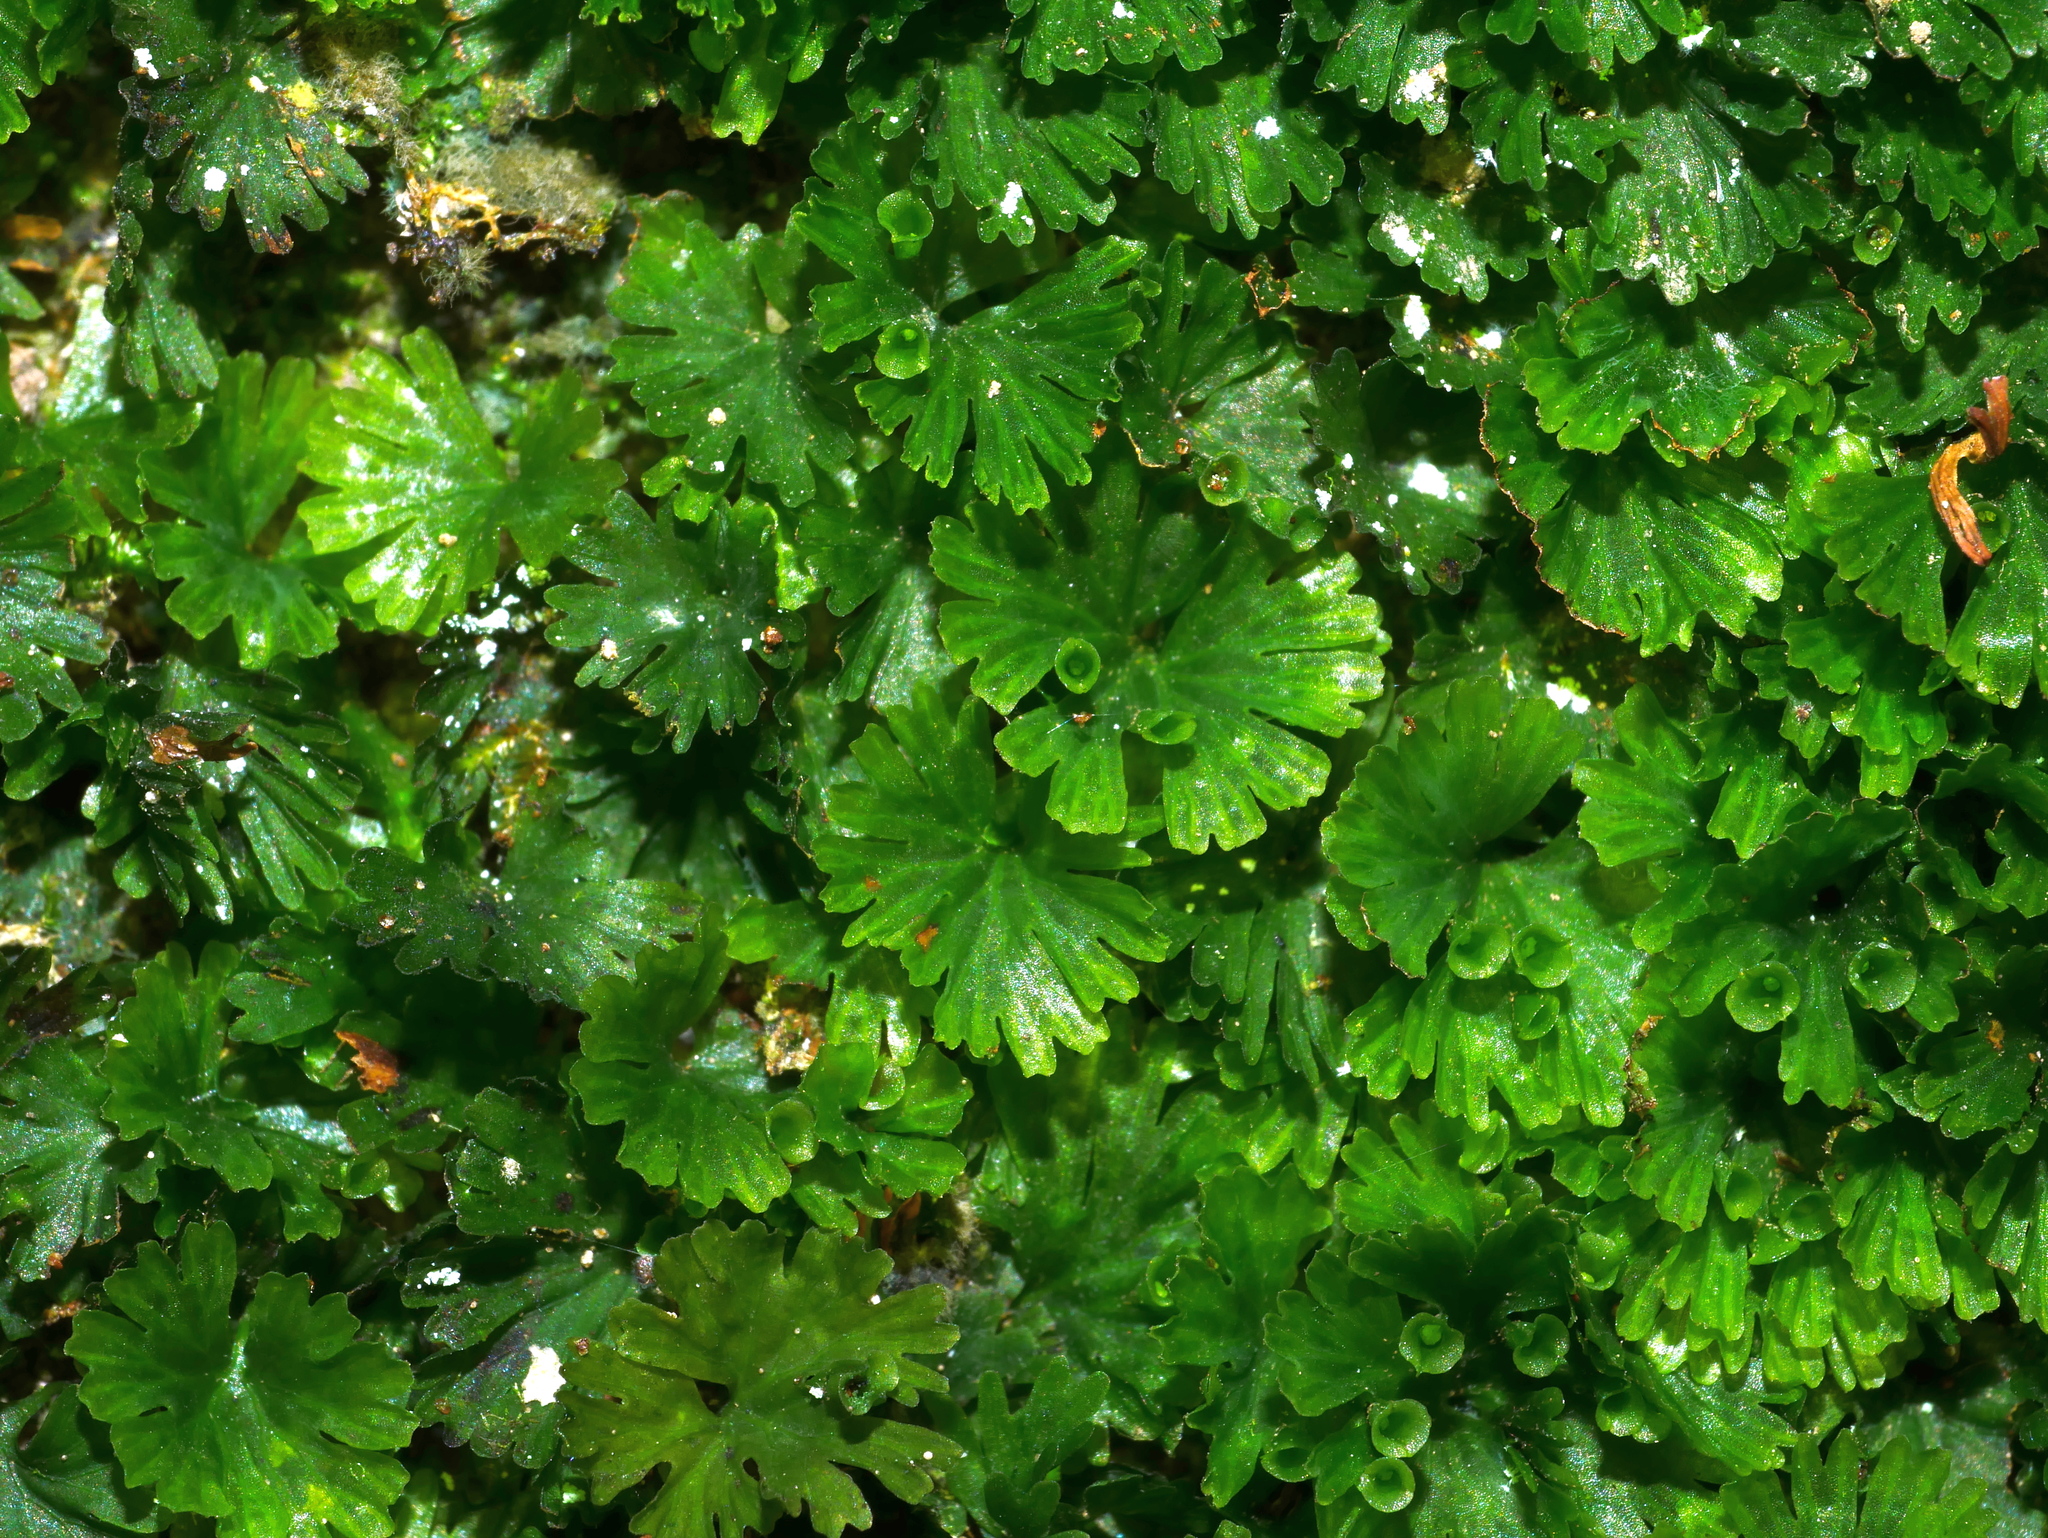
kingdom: Plantae
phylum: Tracheophyta
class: Polypodiopsida
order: Hymenophyllales
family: Hymenophyllaceae
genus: Crepidomanes
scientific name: Crepidomanes parvulum
